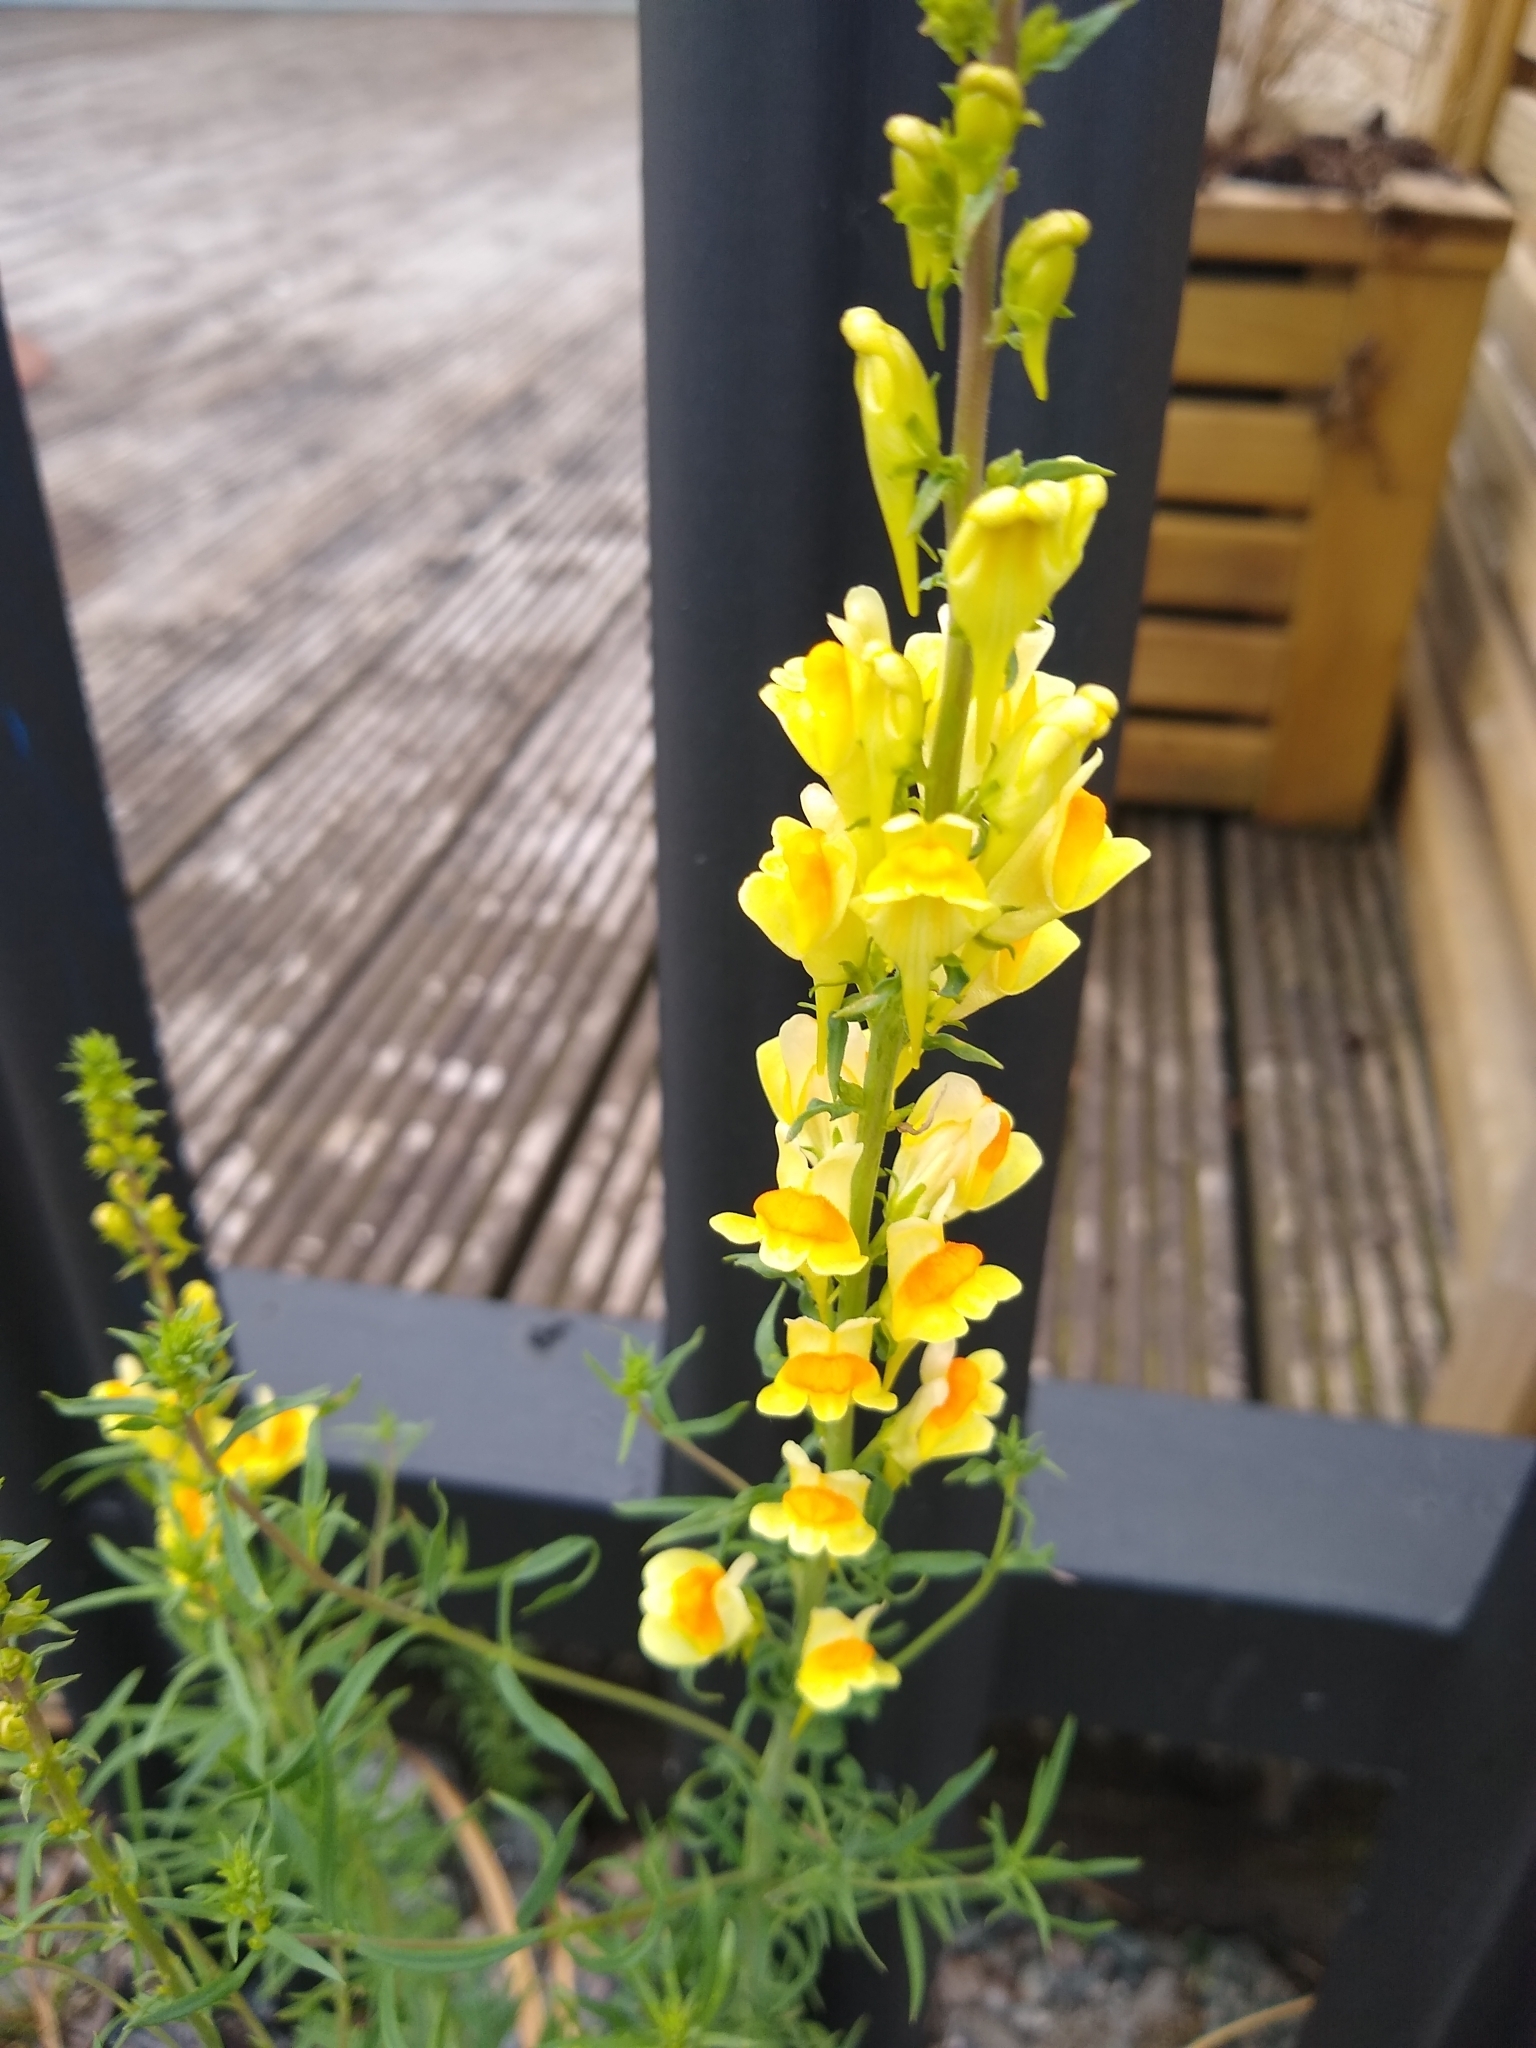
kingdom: Plantae
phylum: Tracheophyta
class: Magnoliopsida
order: Lamiales
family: Plantaginaceae
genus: Linaria
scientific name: Linaria vulgaris
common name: Butter and eggs
